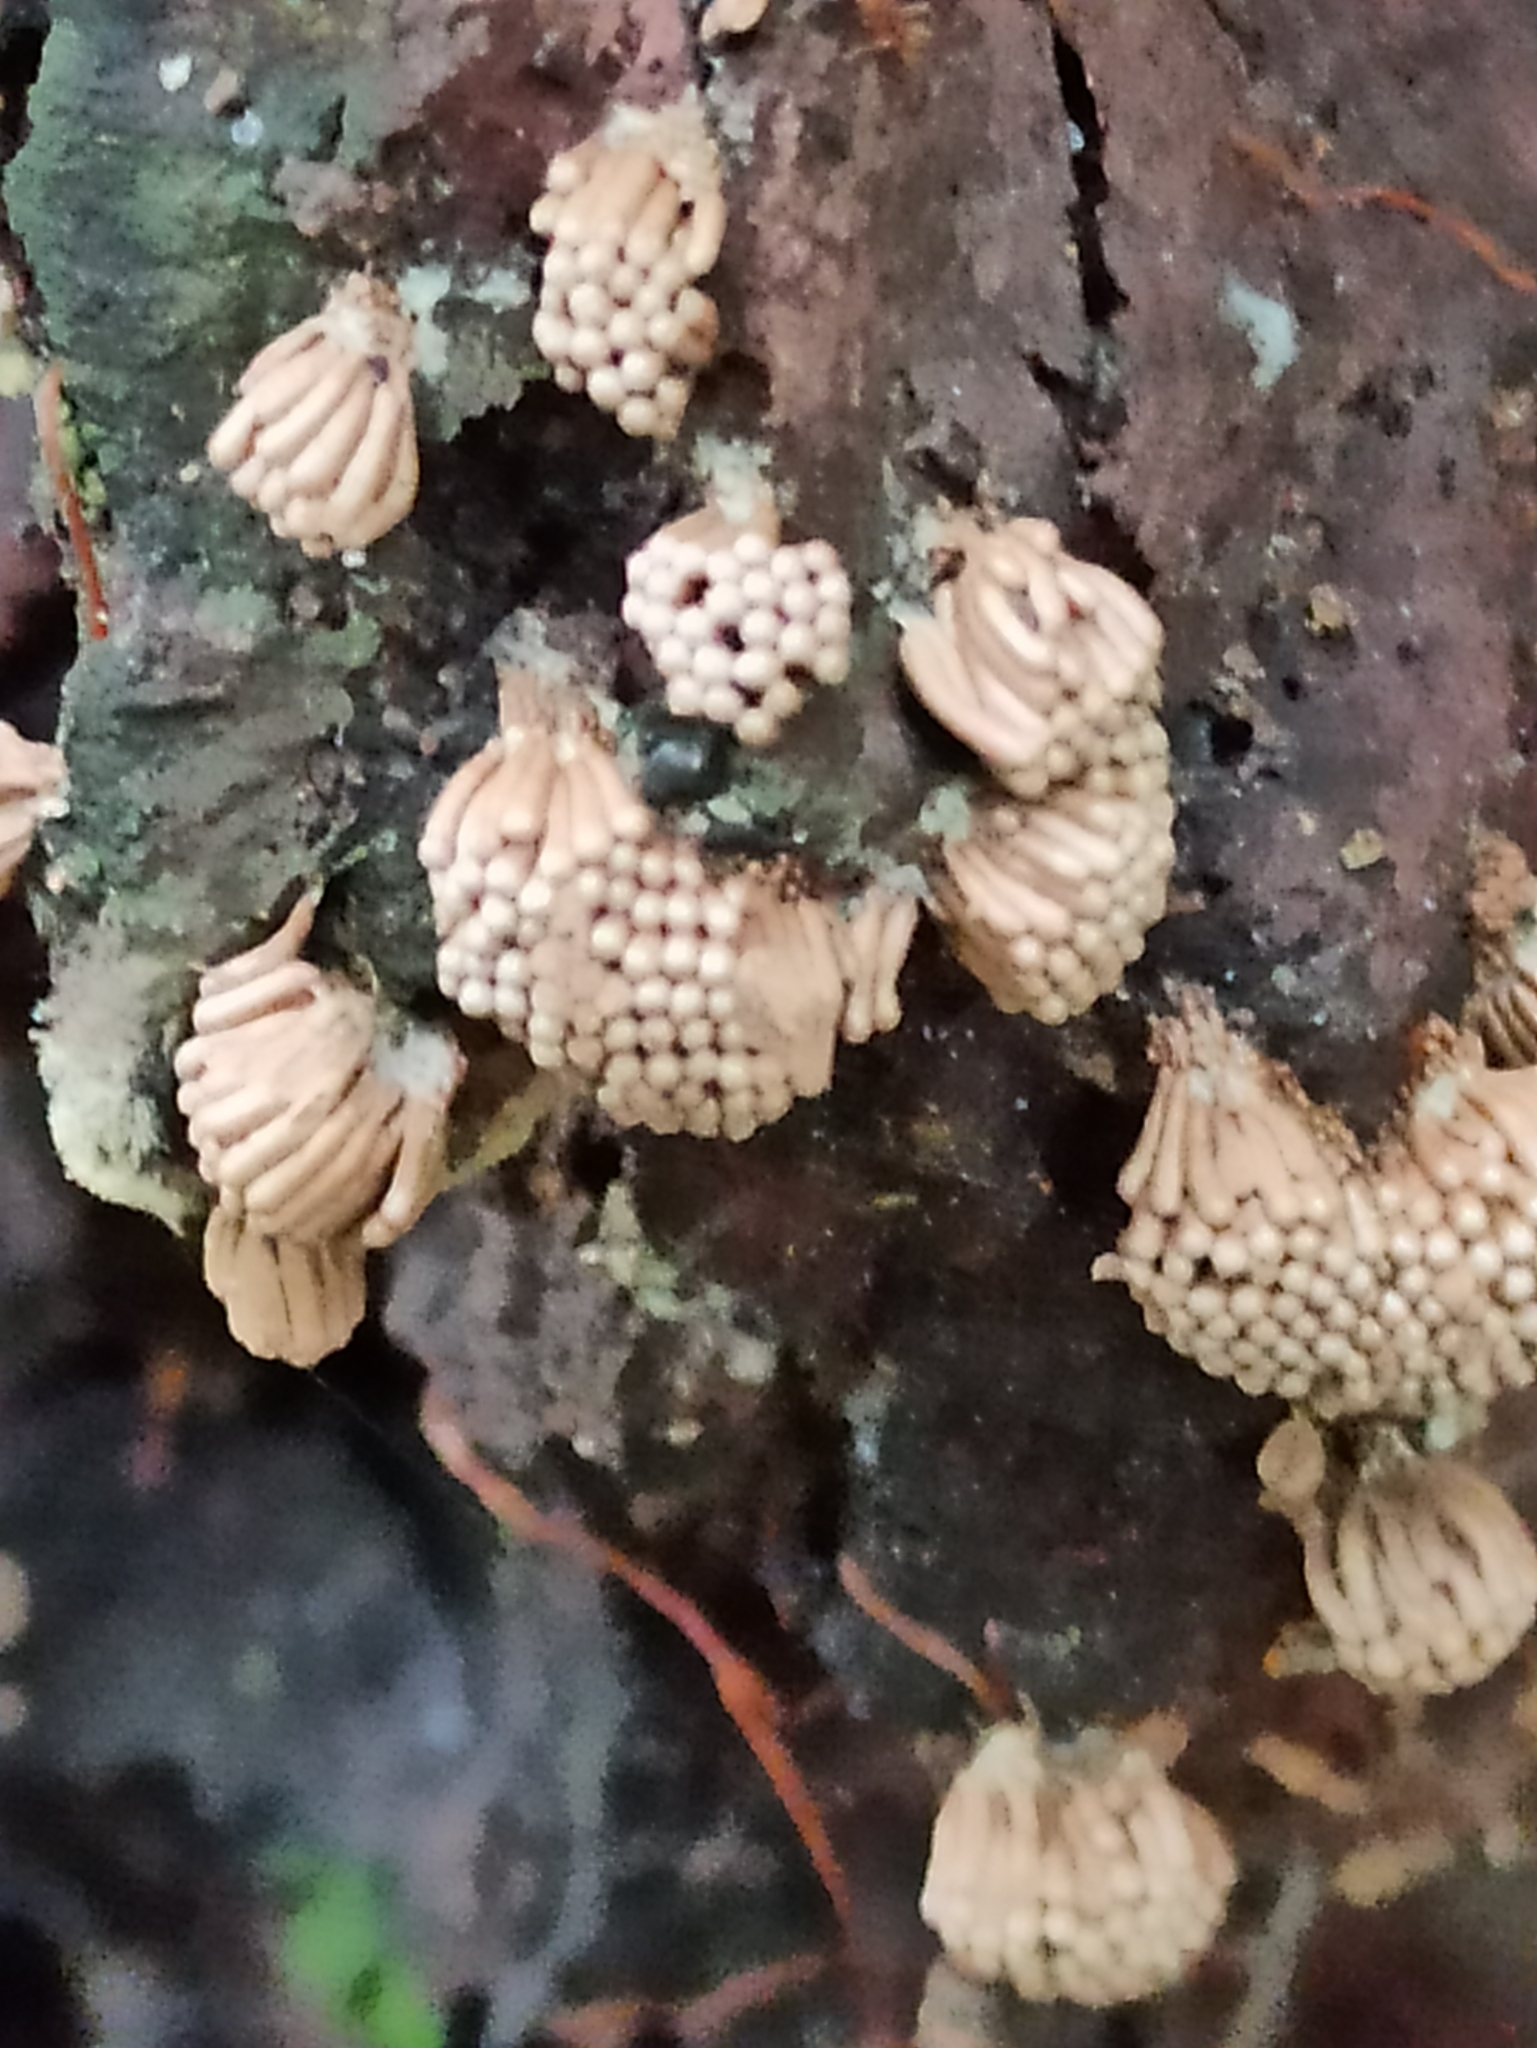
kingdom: Protozoa
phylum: Mycetozoa
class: Myxomycetes
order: Cribrariales
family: Tubiferaceae
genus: Tubifera
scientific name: Tubifera dimorphotheca
